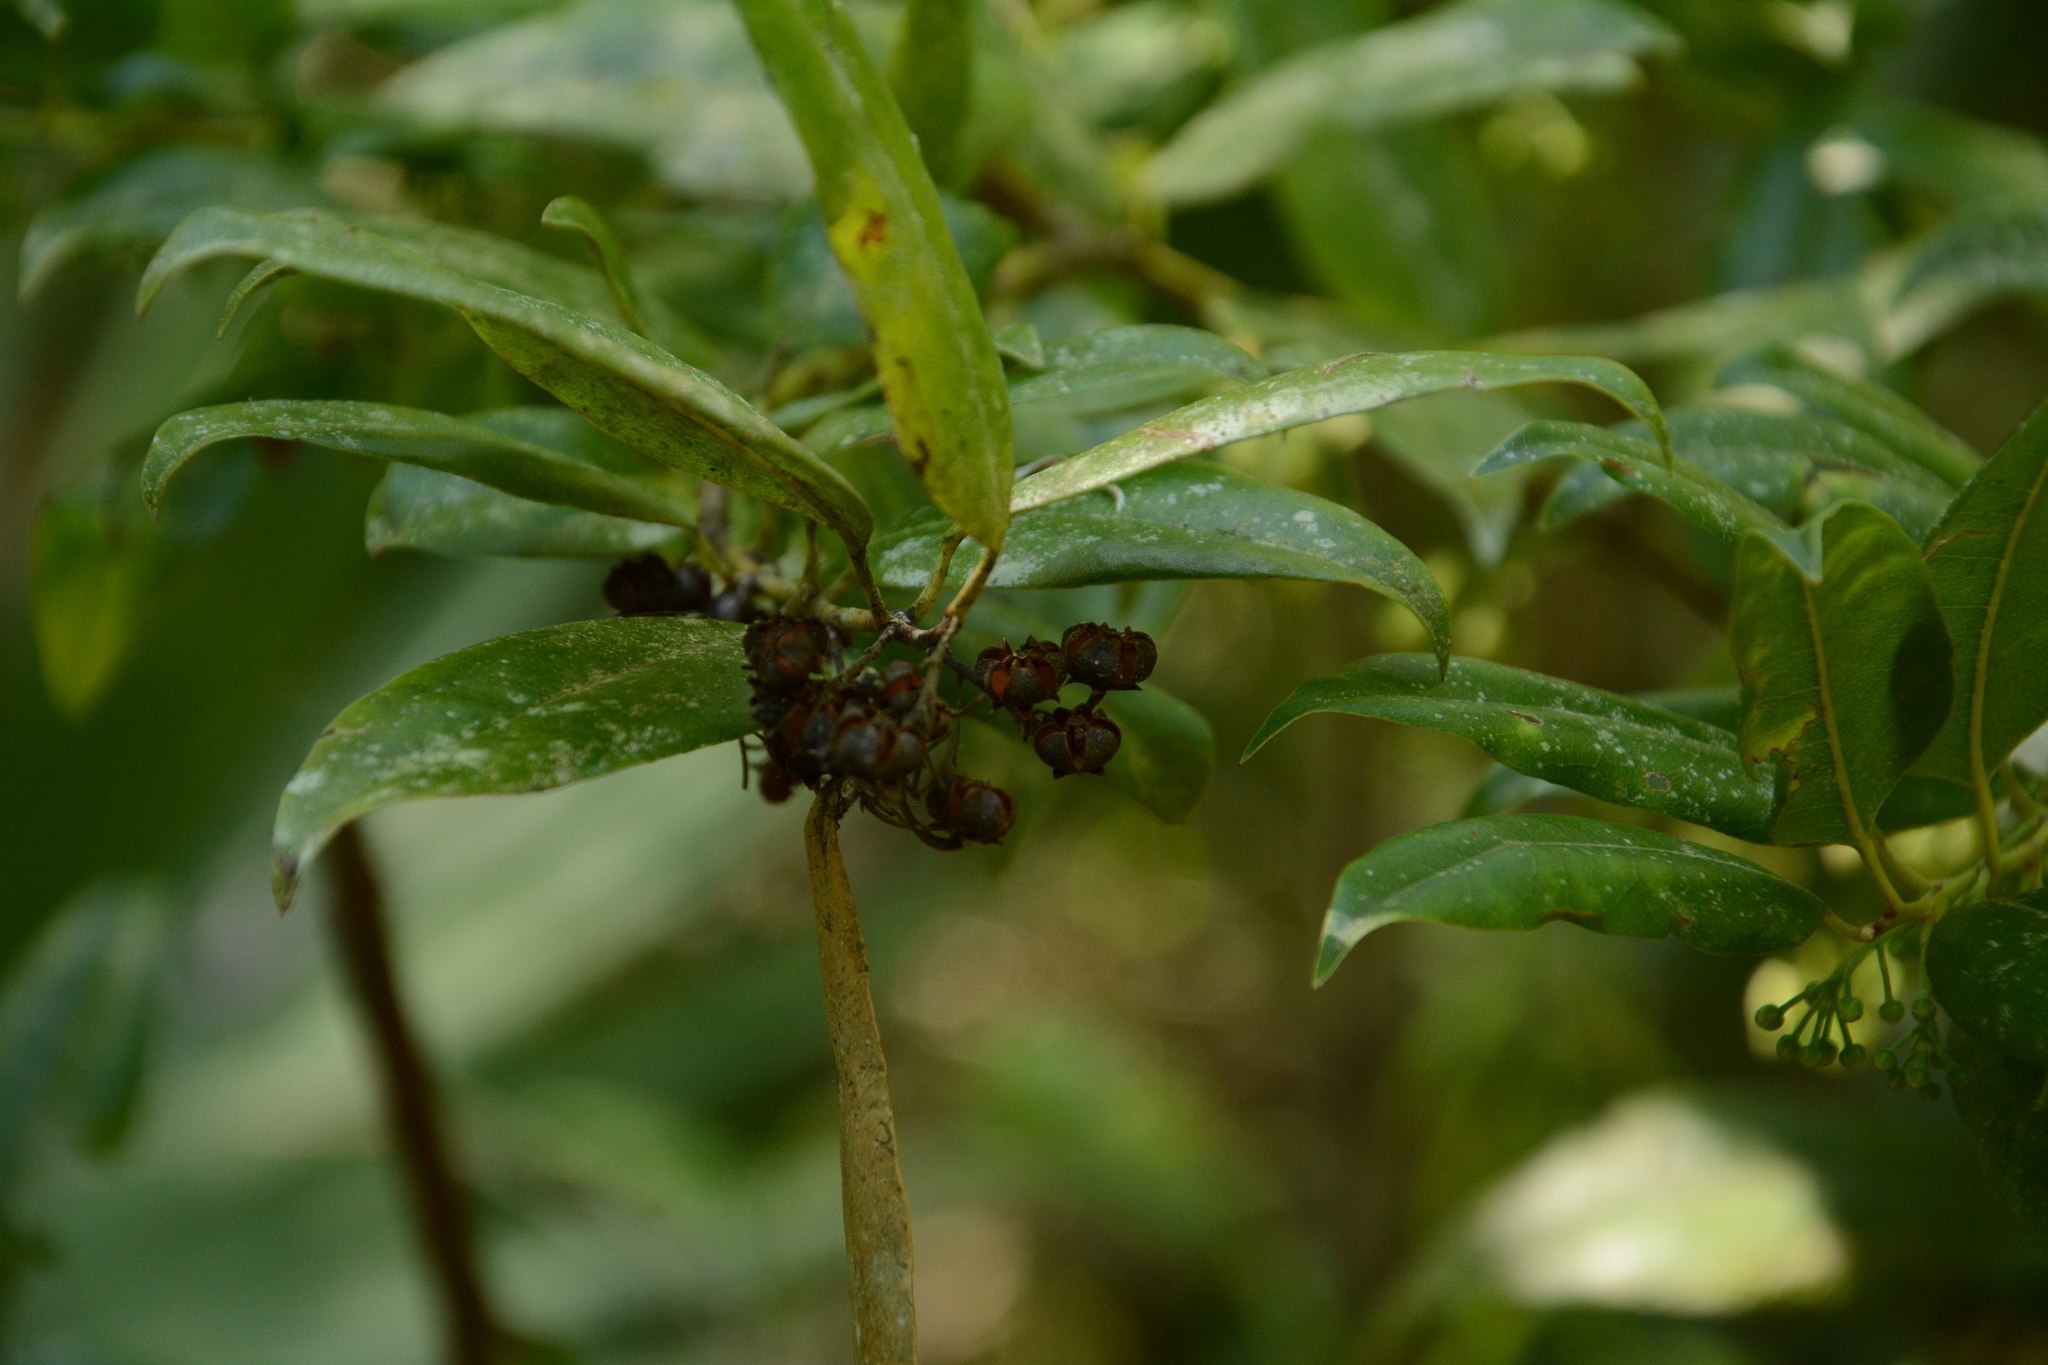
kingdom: Plantae
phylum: Tracheophyta
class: Magnoliopsida
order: Ericales
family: Ericaceae
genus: Agarista
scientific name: Agarista populifolia
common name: Pipeplant
